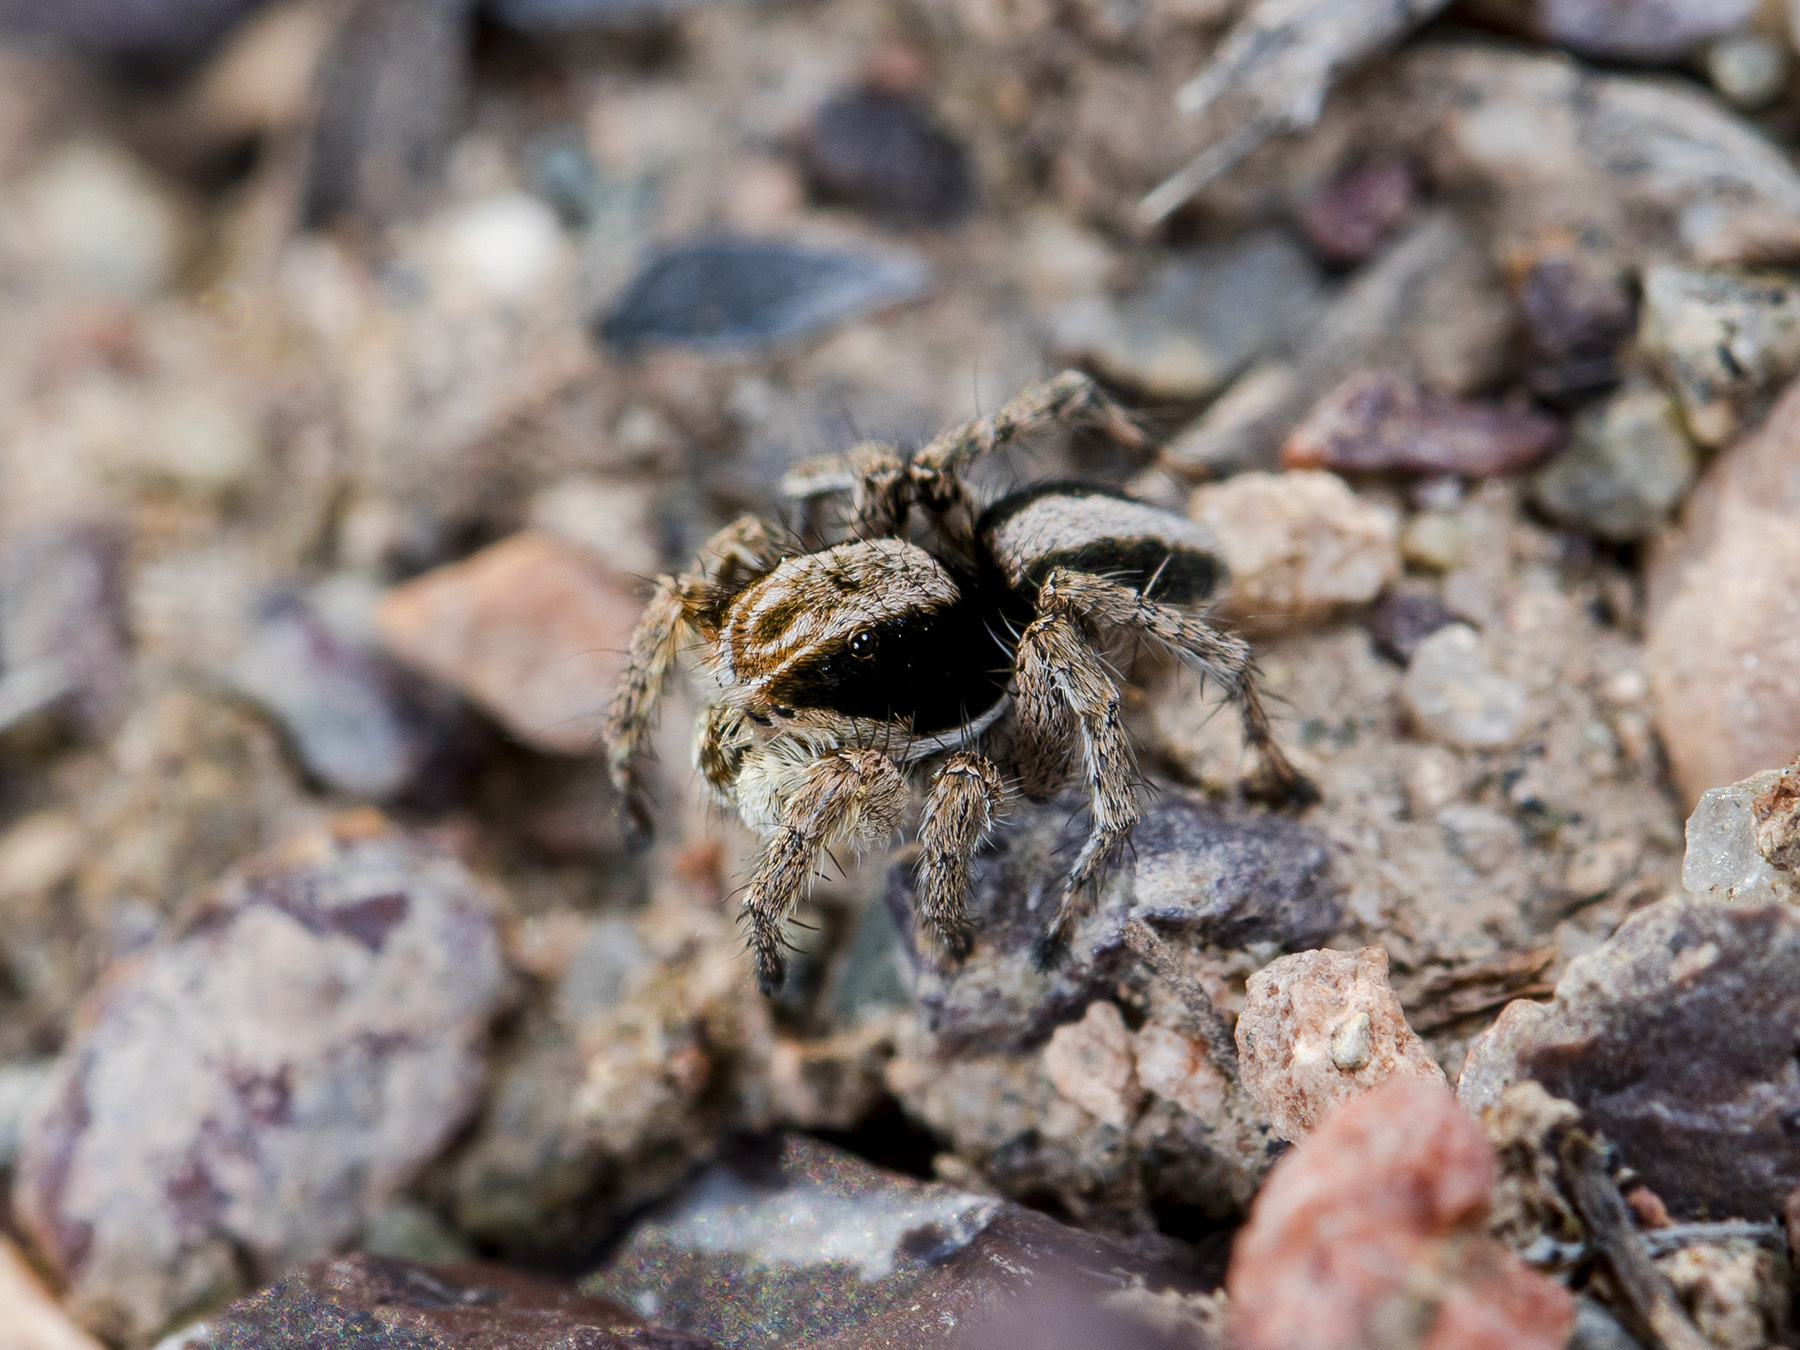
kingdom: Animalia
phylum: Arthropoda
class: Arachnida
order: Araneae
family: Salticidae
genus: Aelurillus
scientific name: Aelurillus nenilini
